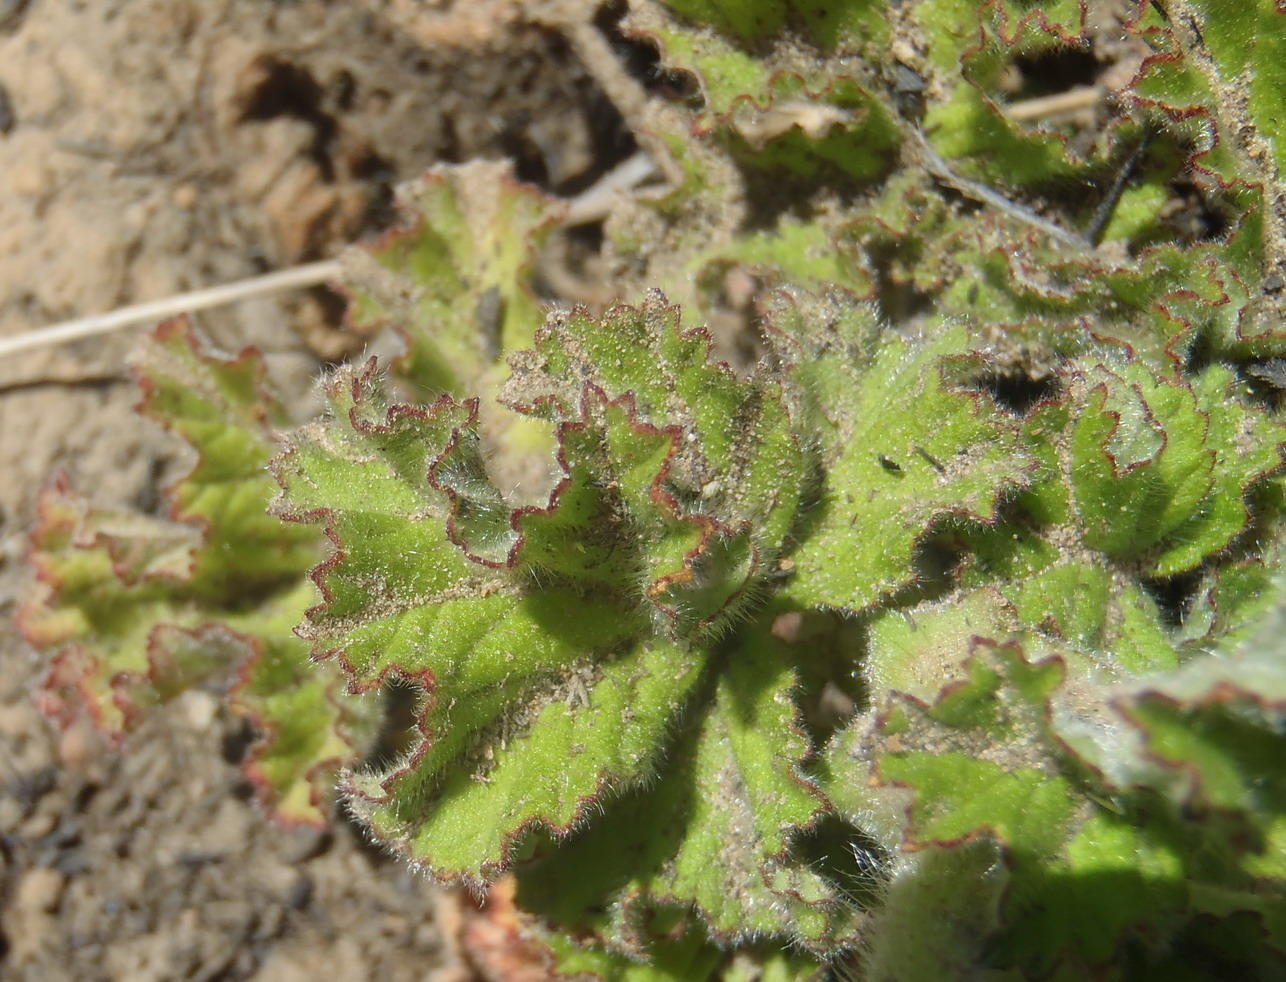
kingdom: Plantae
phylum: Tracheophyta
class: Magnoliopsida
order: Geraniales
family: Geraniaceae
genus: Pelargonium
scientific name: Pelargonium capitatum
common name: Rose scented geranium
